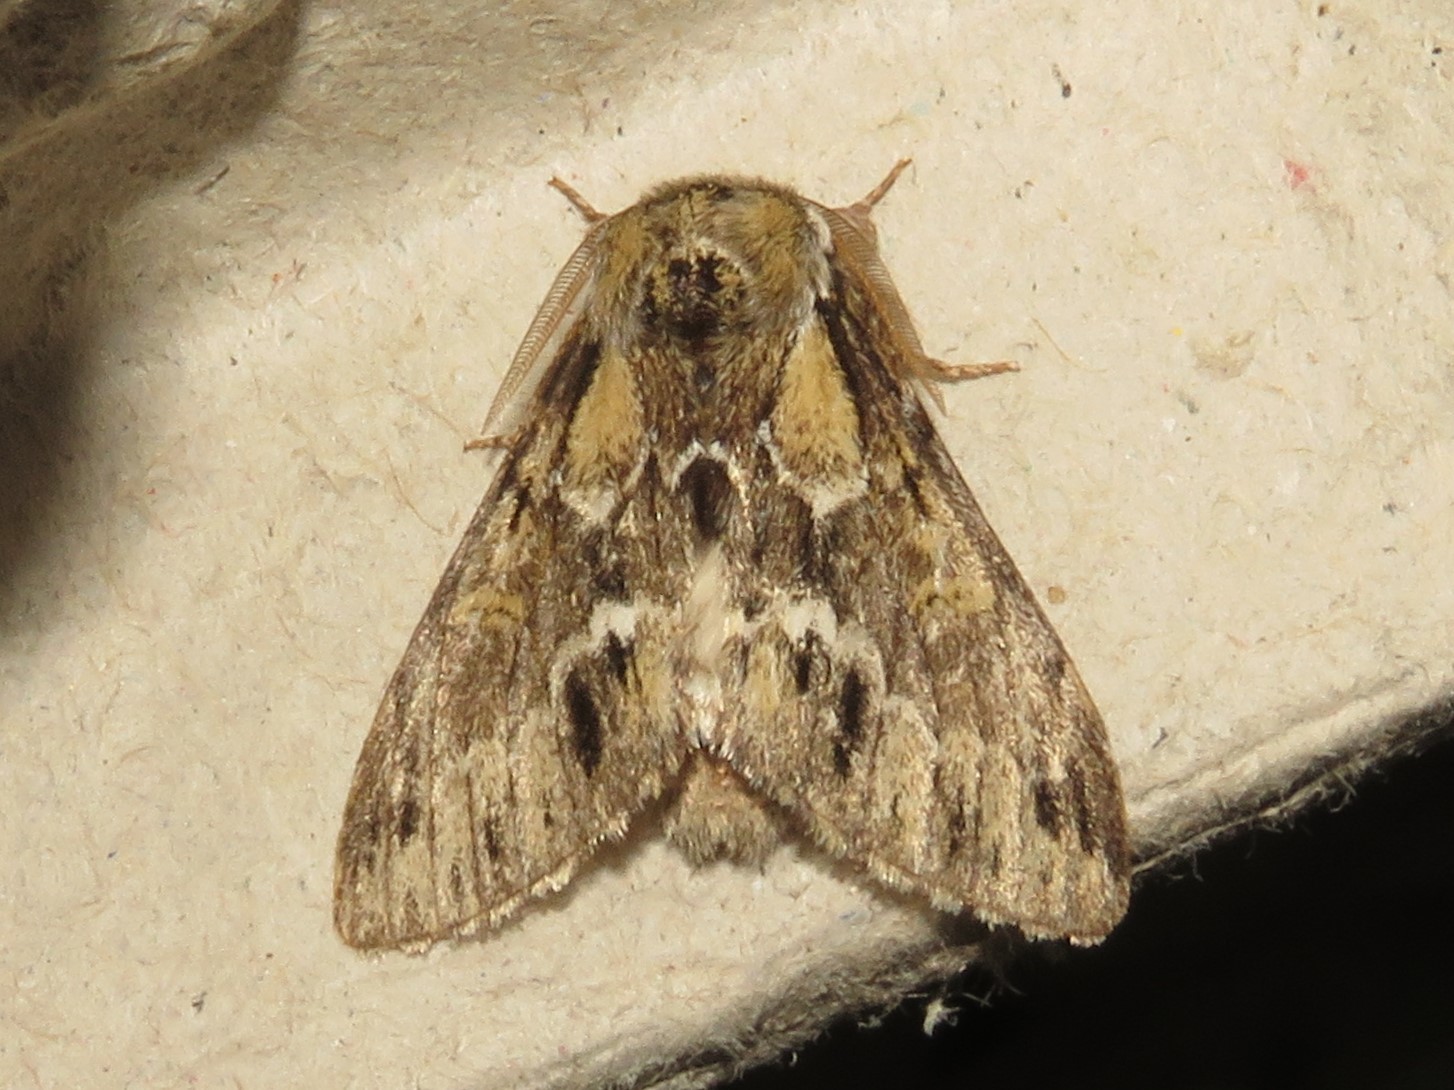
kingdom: Animalia
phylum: Arthropoda
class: Insecta
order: Lepidoptera
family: Notodontidae
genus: Paraeschra
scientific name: Paraeschra georgica
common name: Georgian prominent
